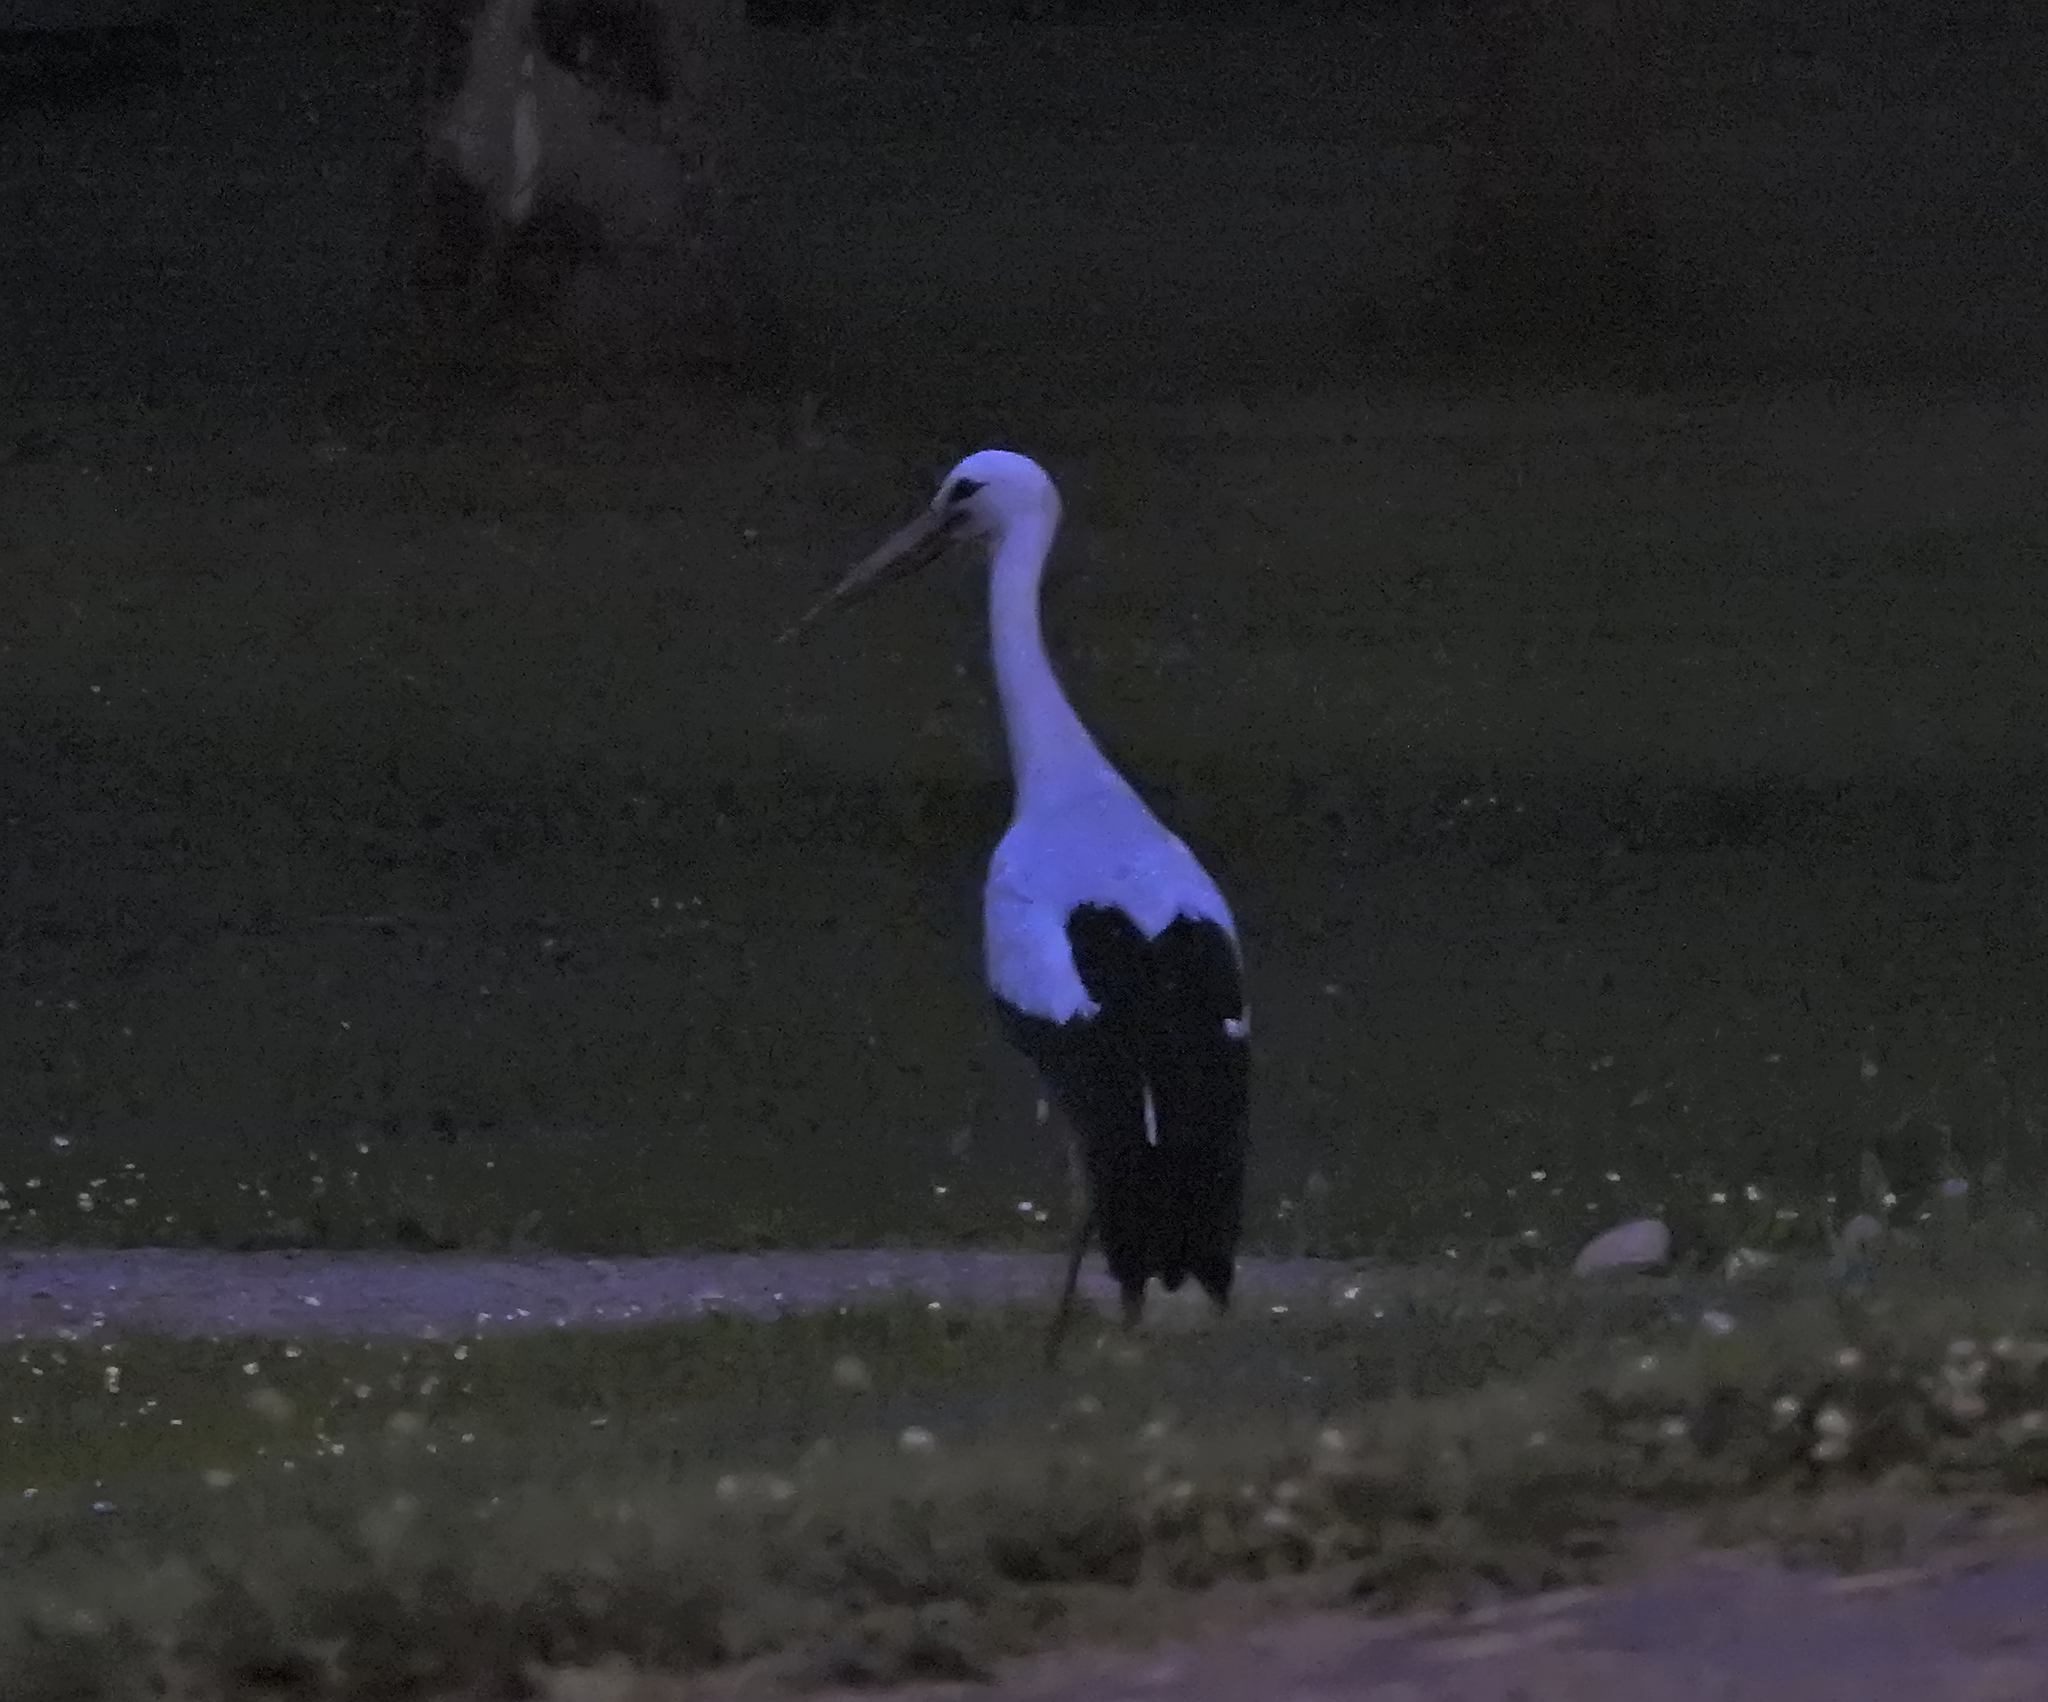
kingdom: Animalia
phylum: Chordata
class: Aves
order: Ciconiiformes
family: Ciconiidae
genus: Ciconia
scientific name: Ciconia ciconia
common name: White stork
